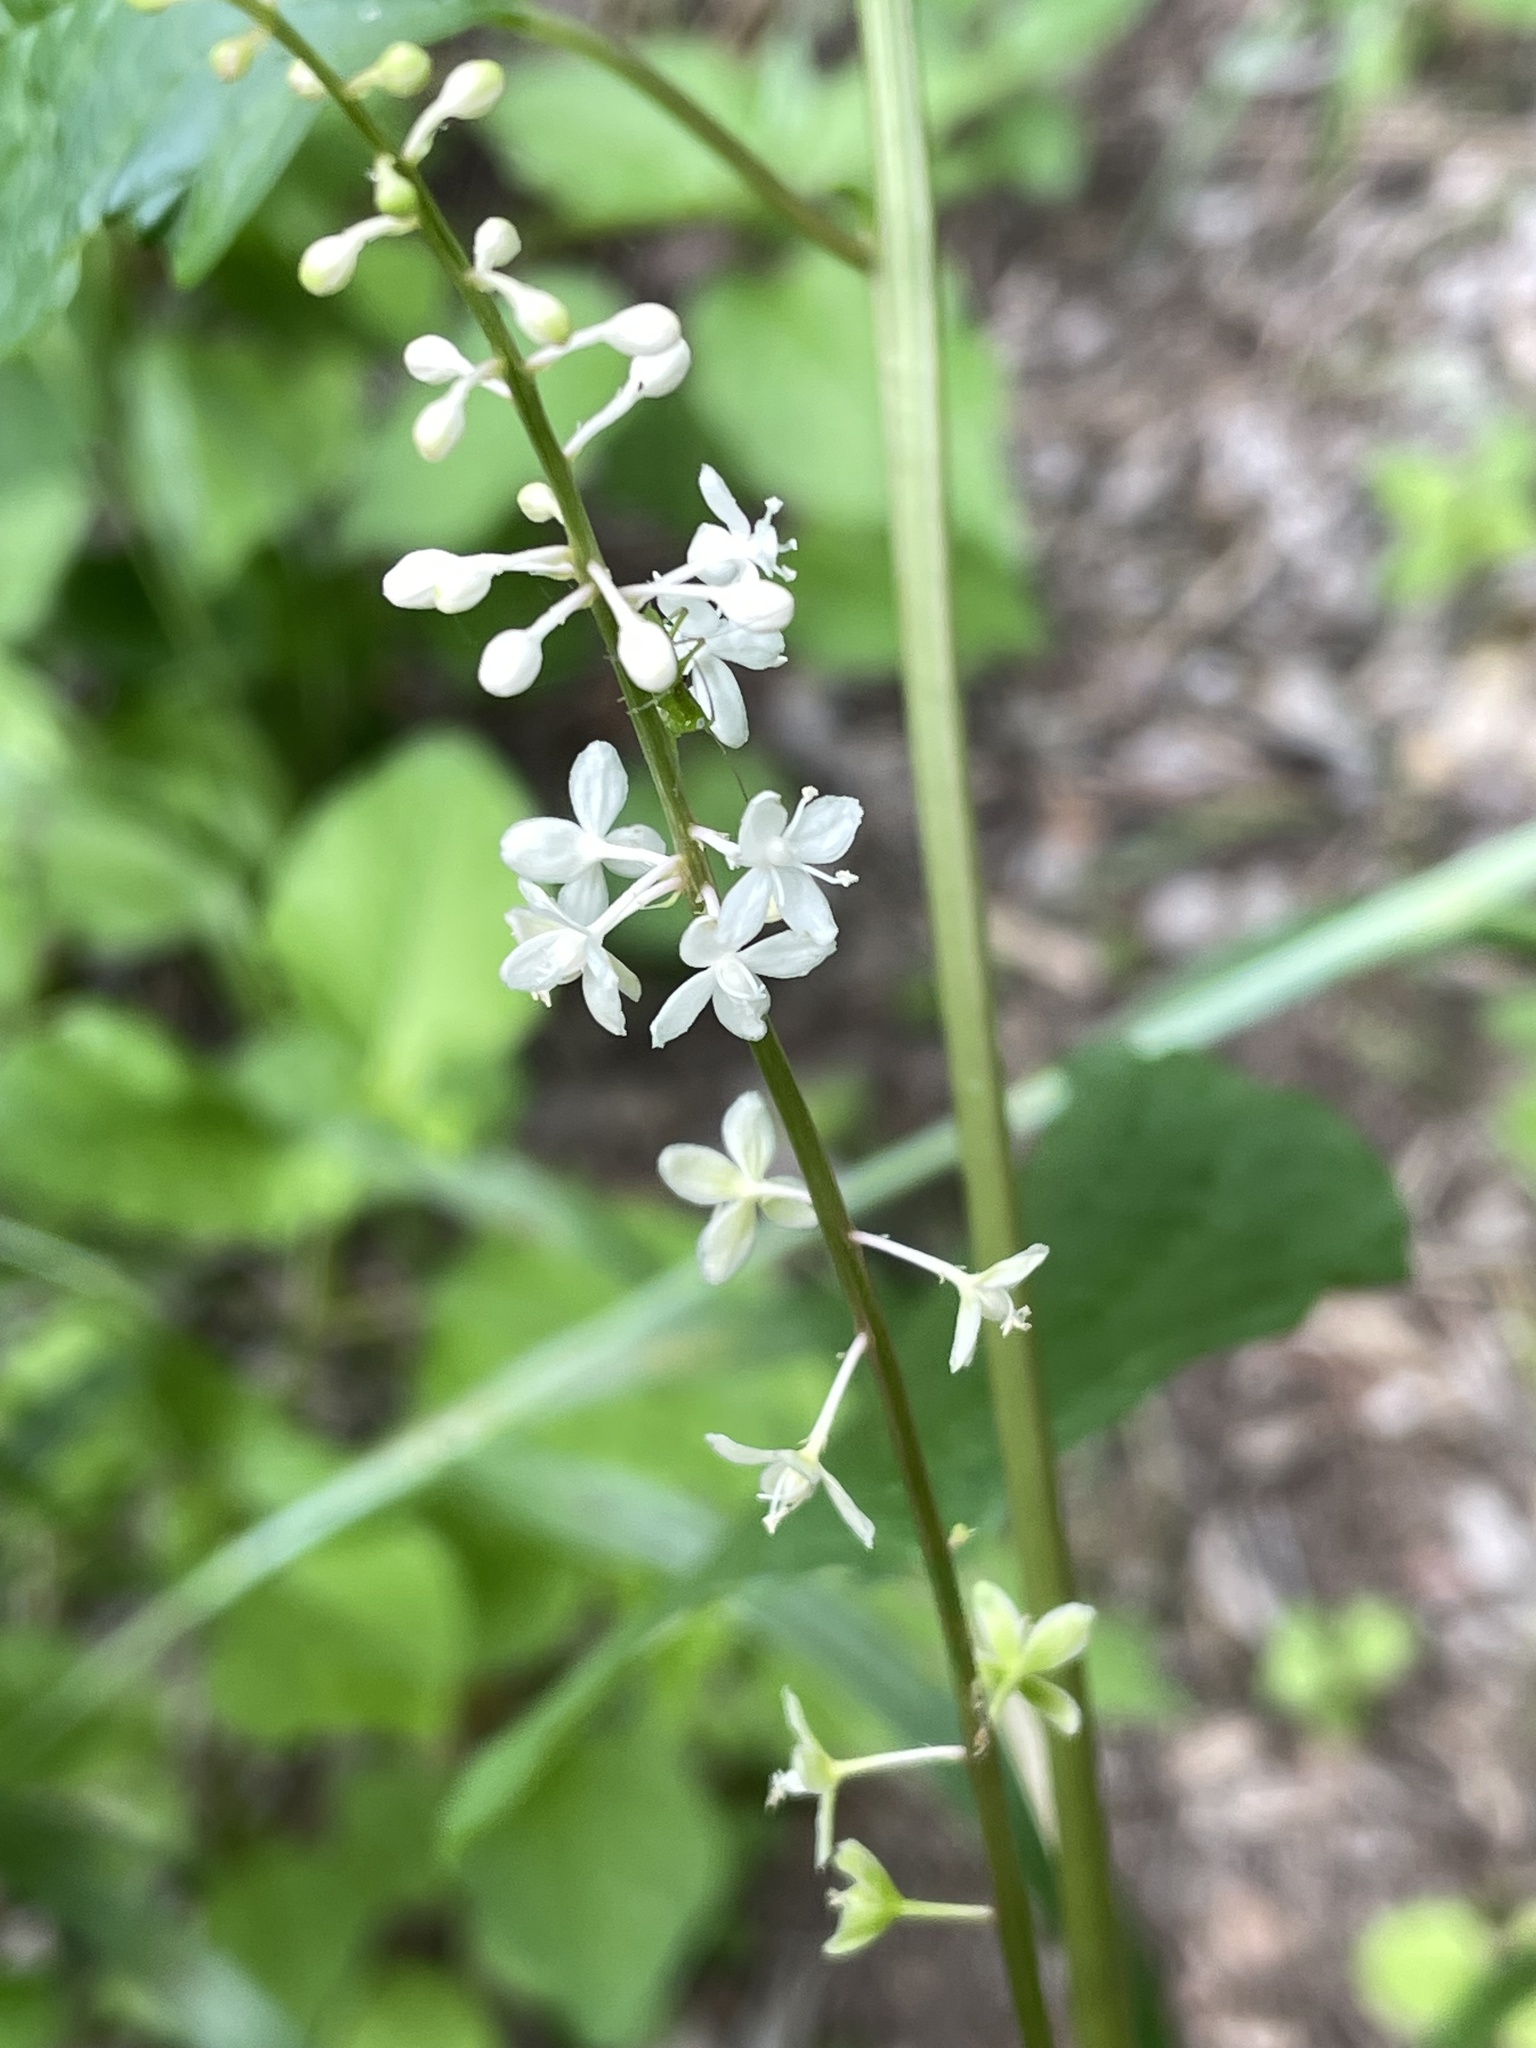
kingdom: Plantae
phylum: Tracheophyta
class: Magnoliopsida
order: Caryophyllales
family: Phytolaccaceae
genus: Rivina
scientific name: Rivina humilis
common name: Rougeplant
